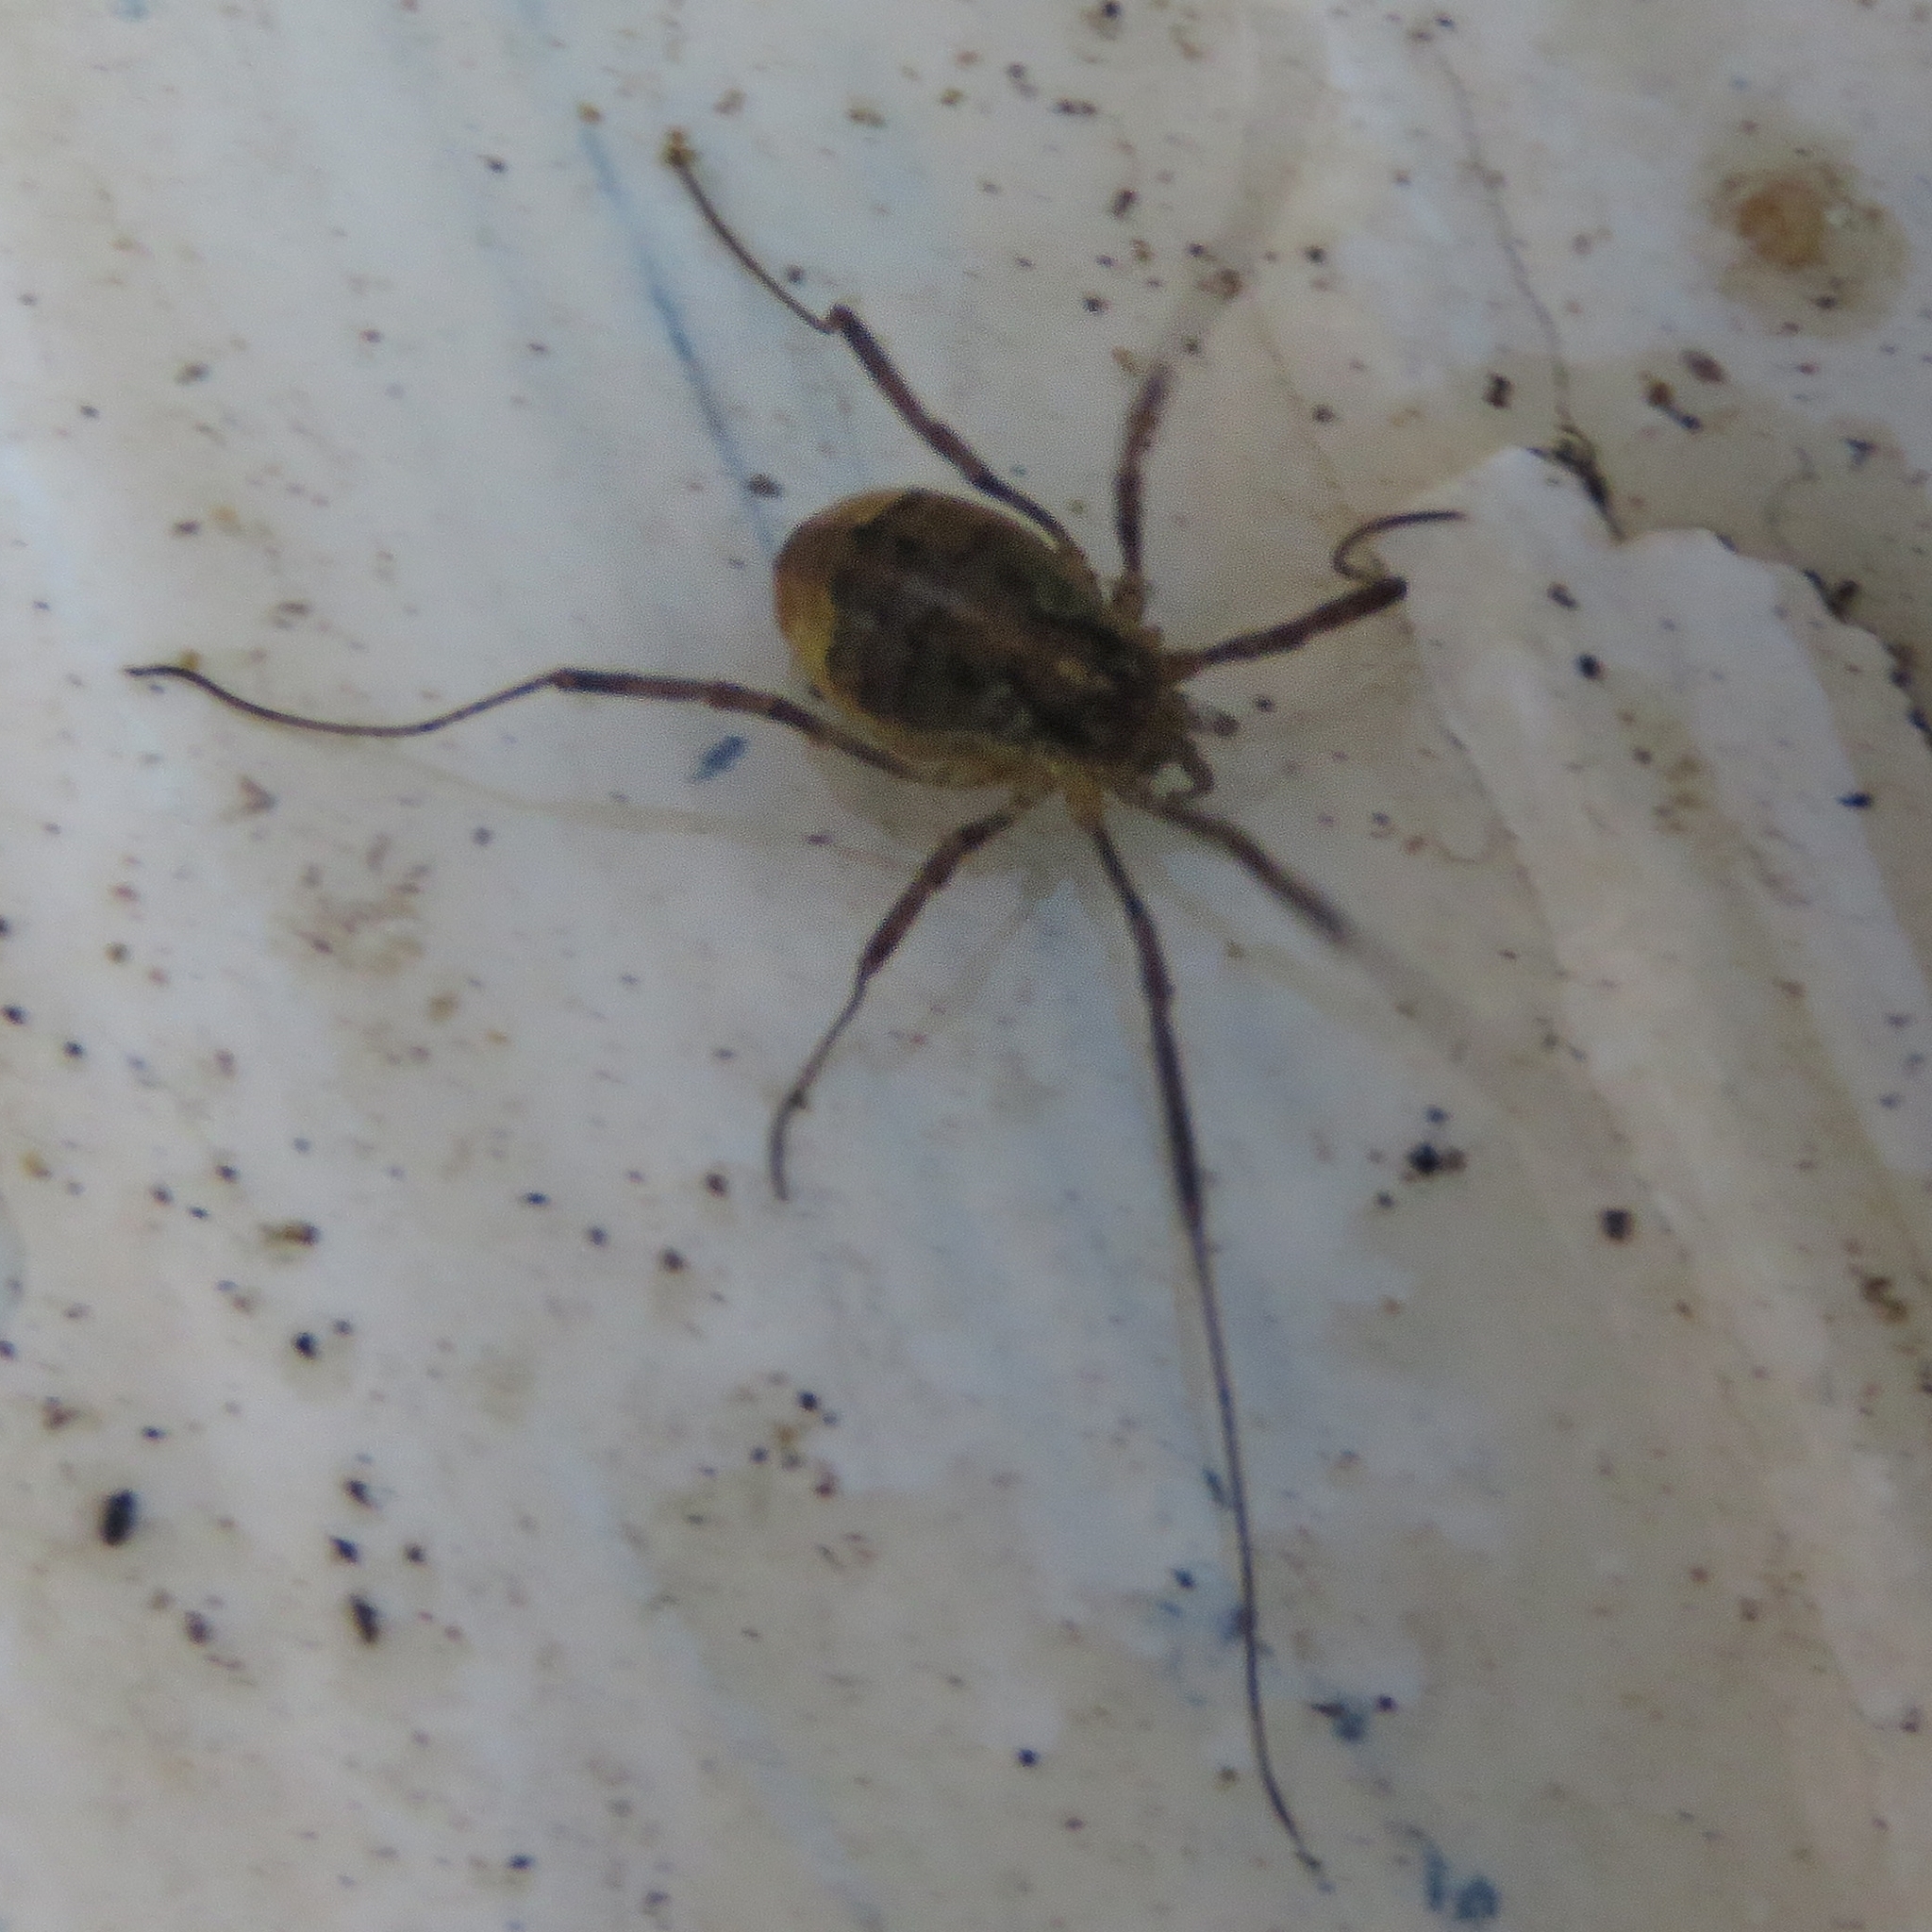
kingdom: Animalia
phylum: Arthropoda
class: Arachnida
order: Opiliones
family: Phalangiidae
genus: Paroligolophus
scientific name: Paroligolophus agrestis
